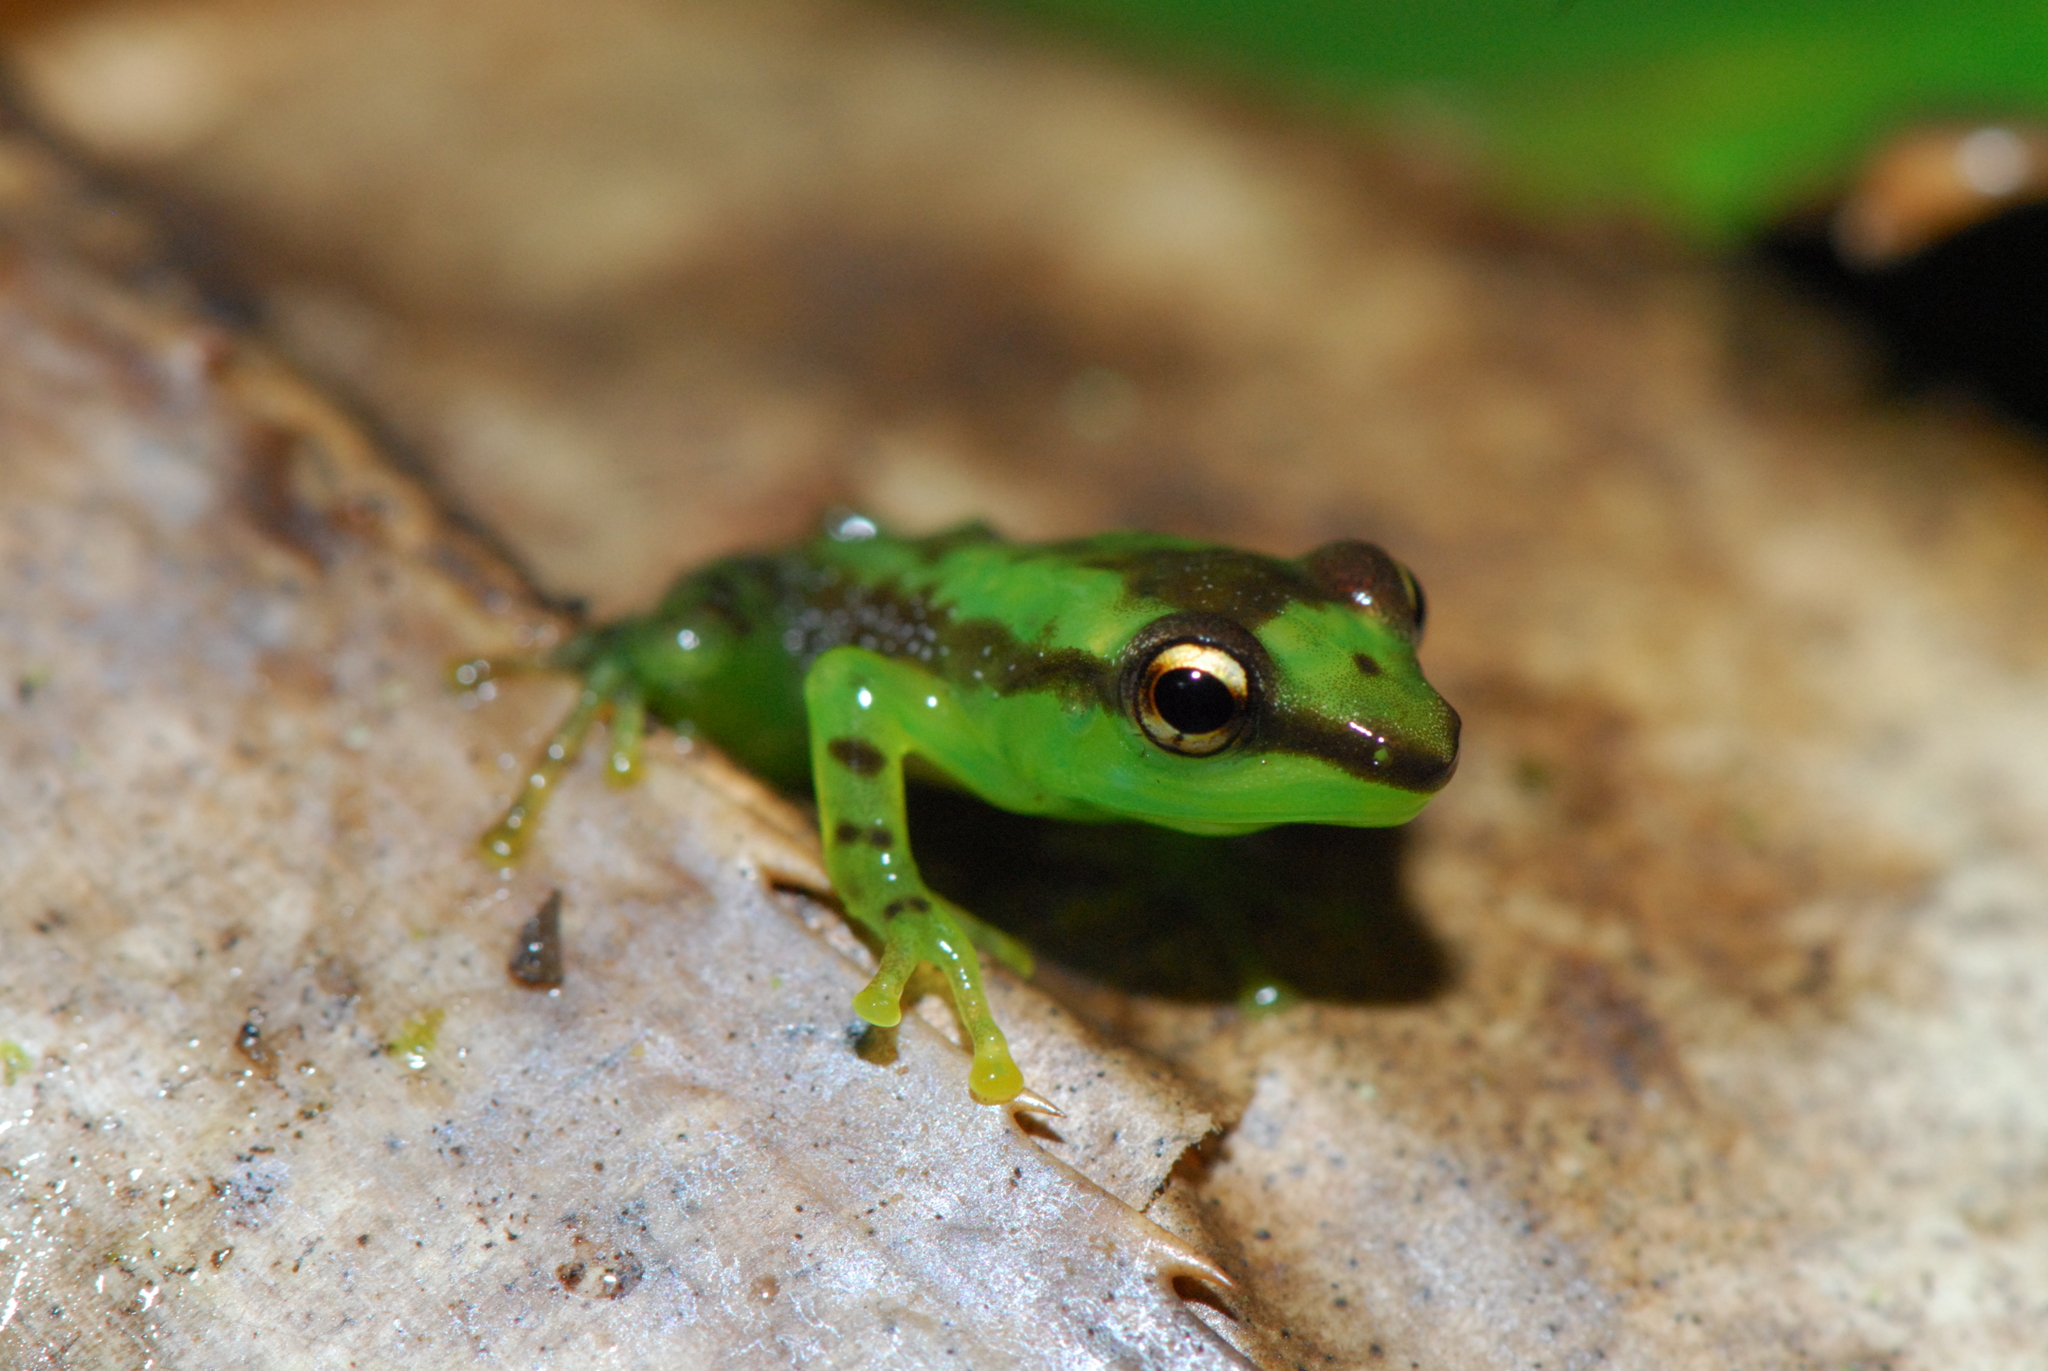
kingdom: Animalia
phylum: Chordata
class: Amphibia
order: Anura
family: Mantellidae
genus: Guibemantis
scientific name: Guibemantis pulcher
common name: Tsarafidy madagascar frog
